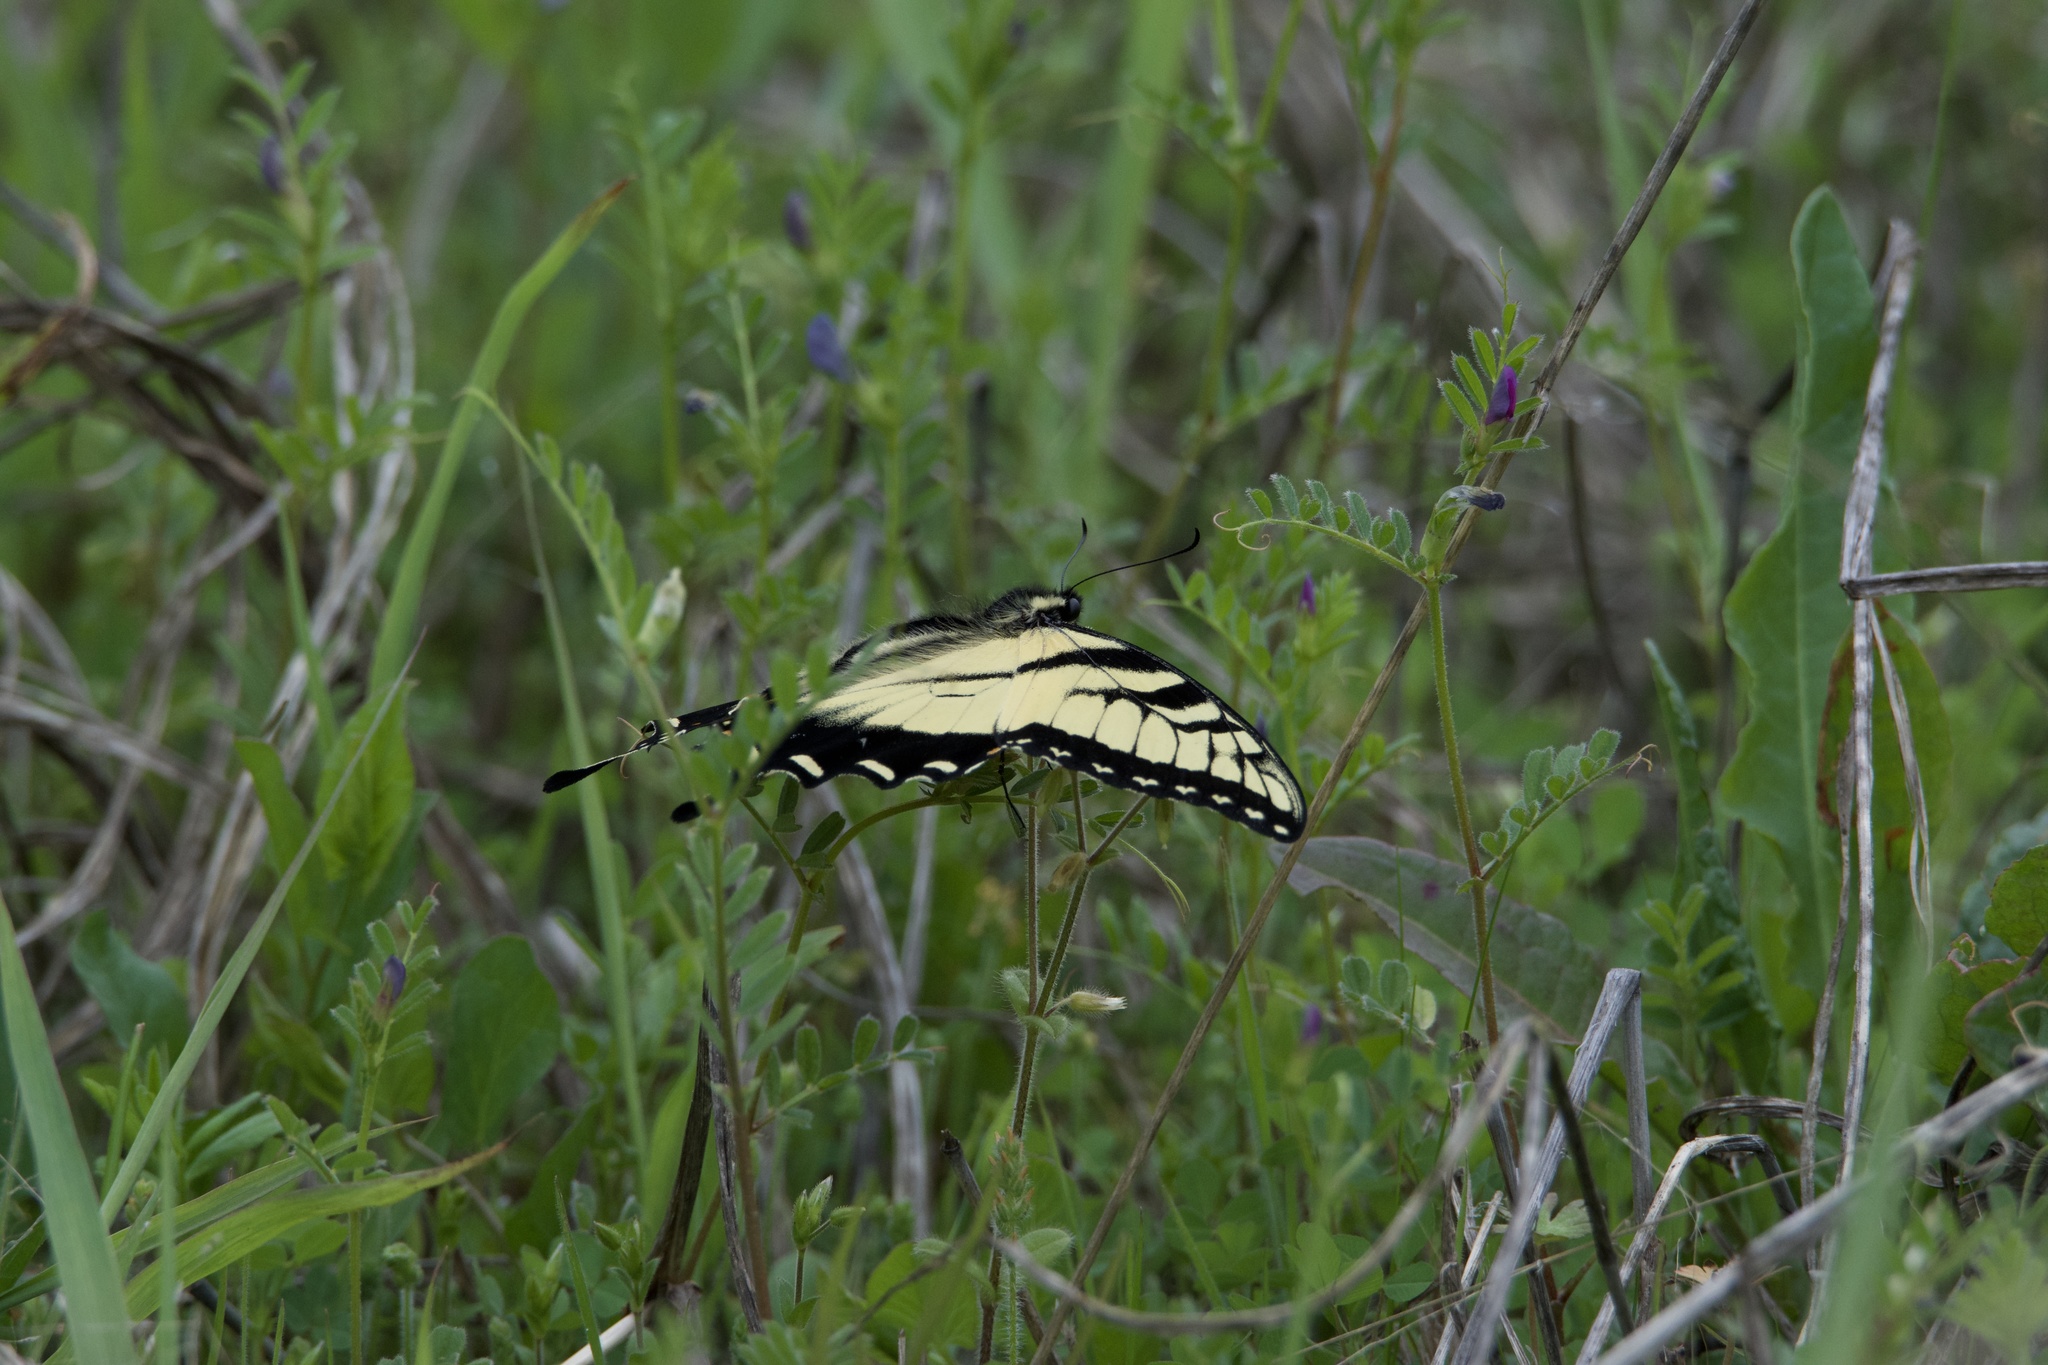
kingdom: Animalia
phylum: Arthropoda
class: Insecta
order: Lepidoptera
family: Papilionidae
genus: Papilio
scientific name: Papilio glaucus
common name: Tiger swallowtail
